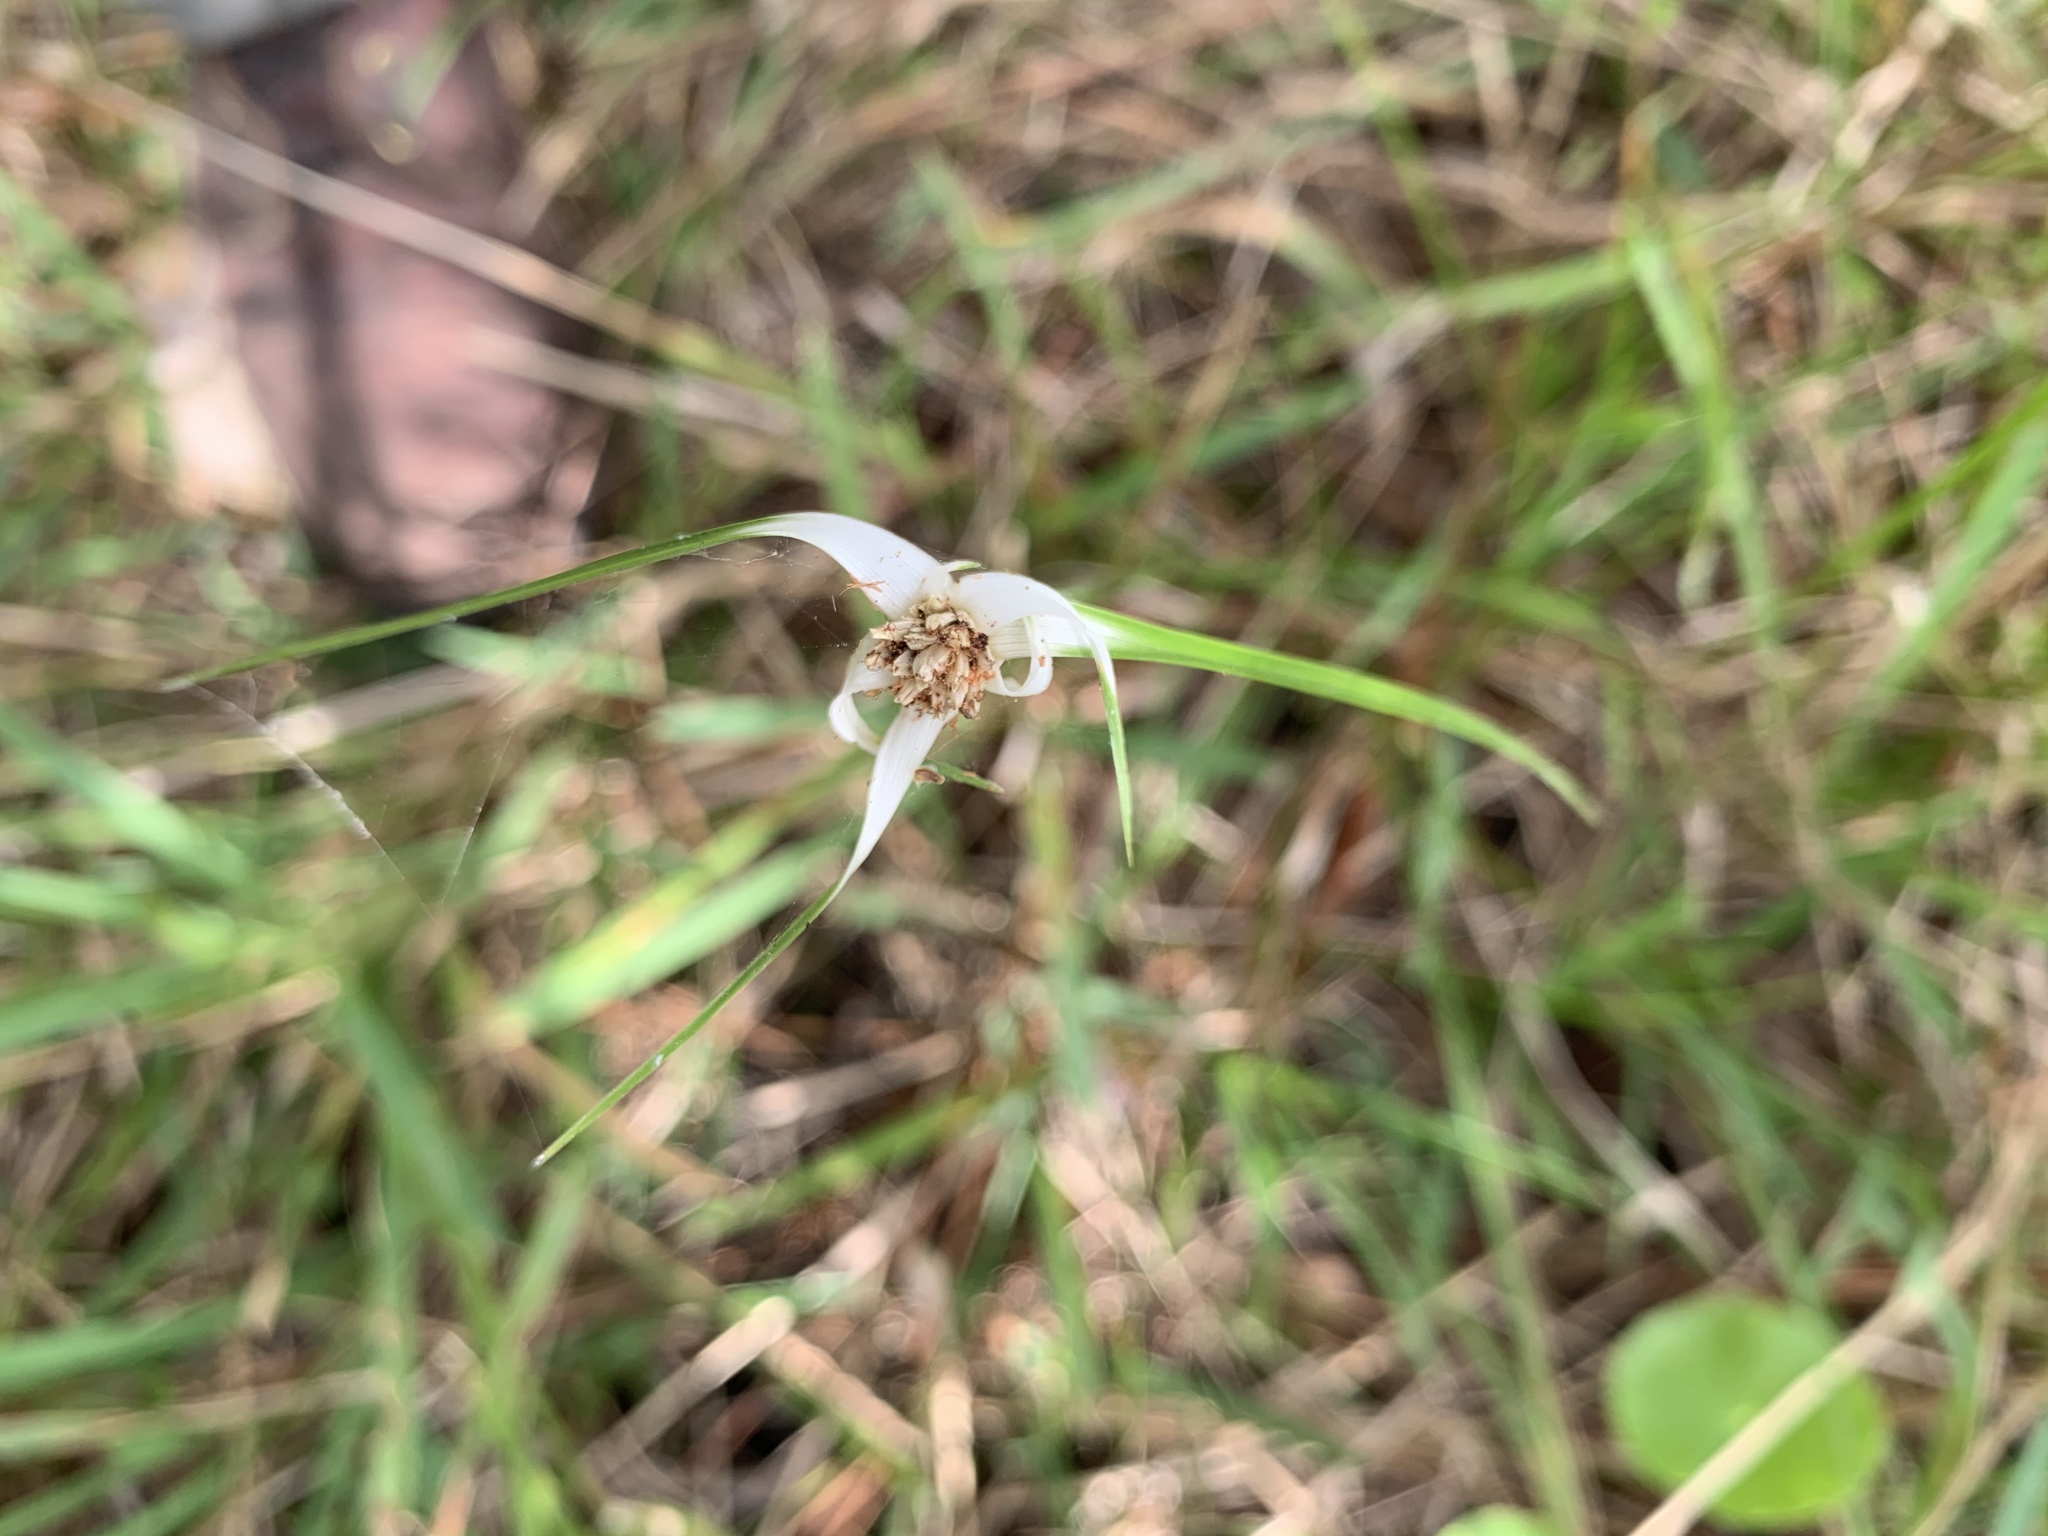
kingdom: Plantae
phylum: Tracheophyta
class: Liliopsida
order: Poales
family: Cyperaceae
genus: Rhynchospora
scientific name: Rhynchospora colorata
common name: Star sedge
